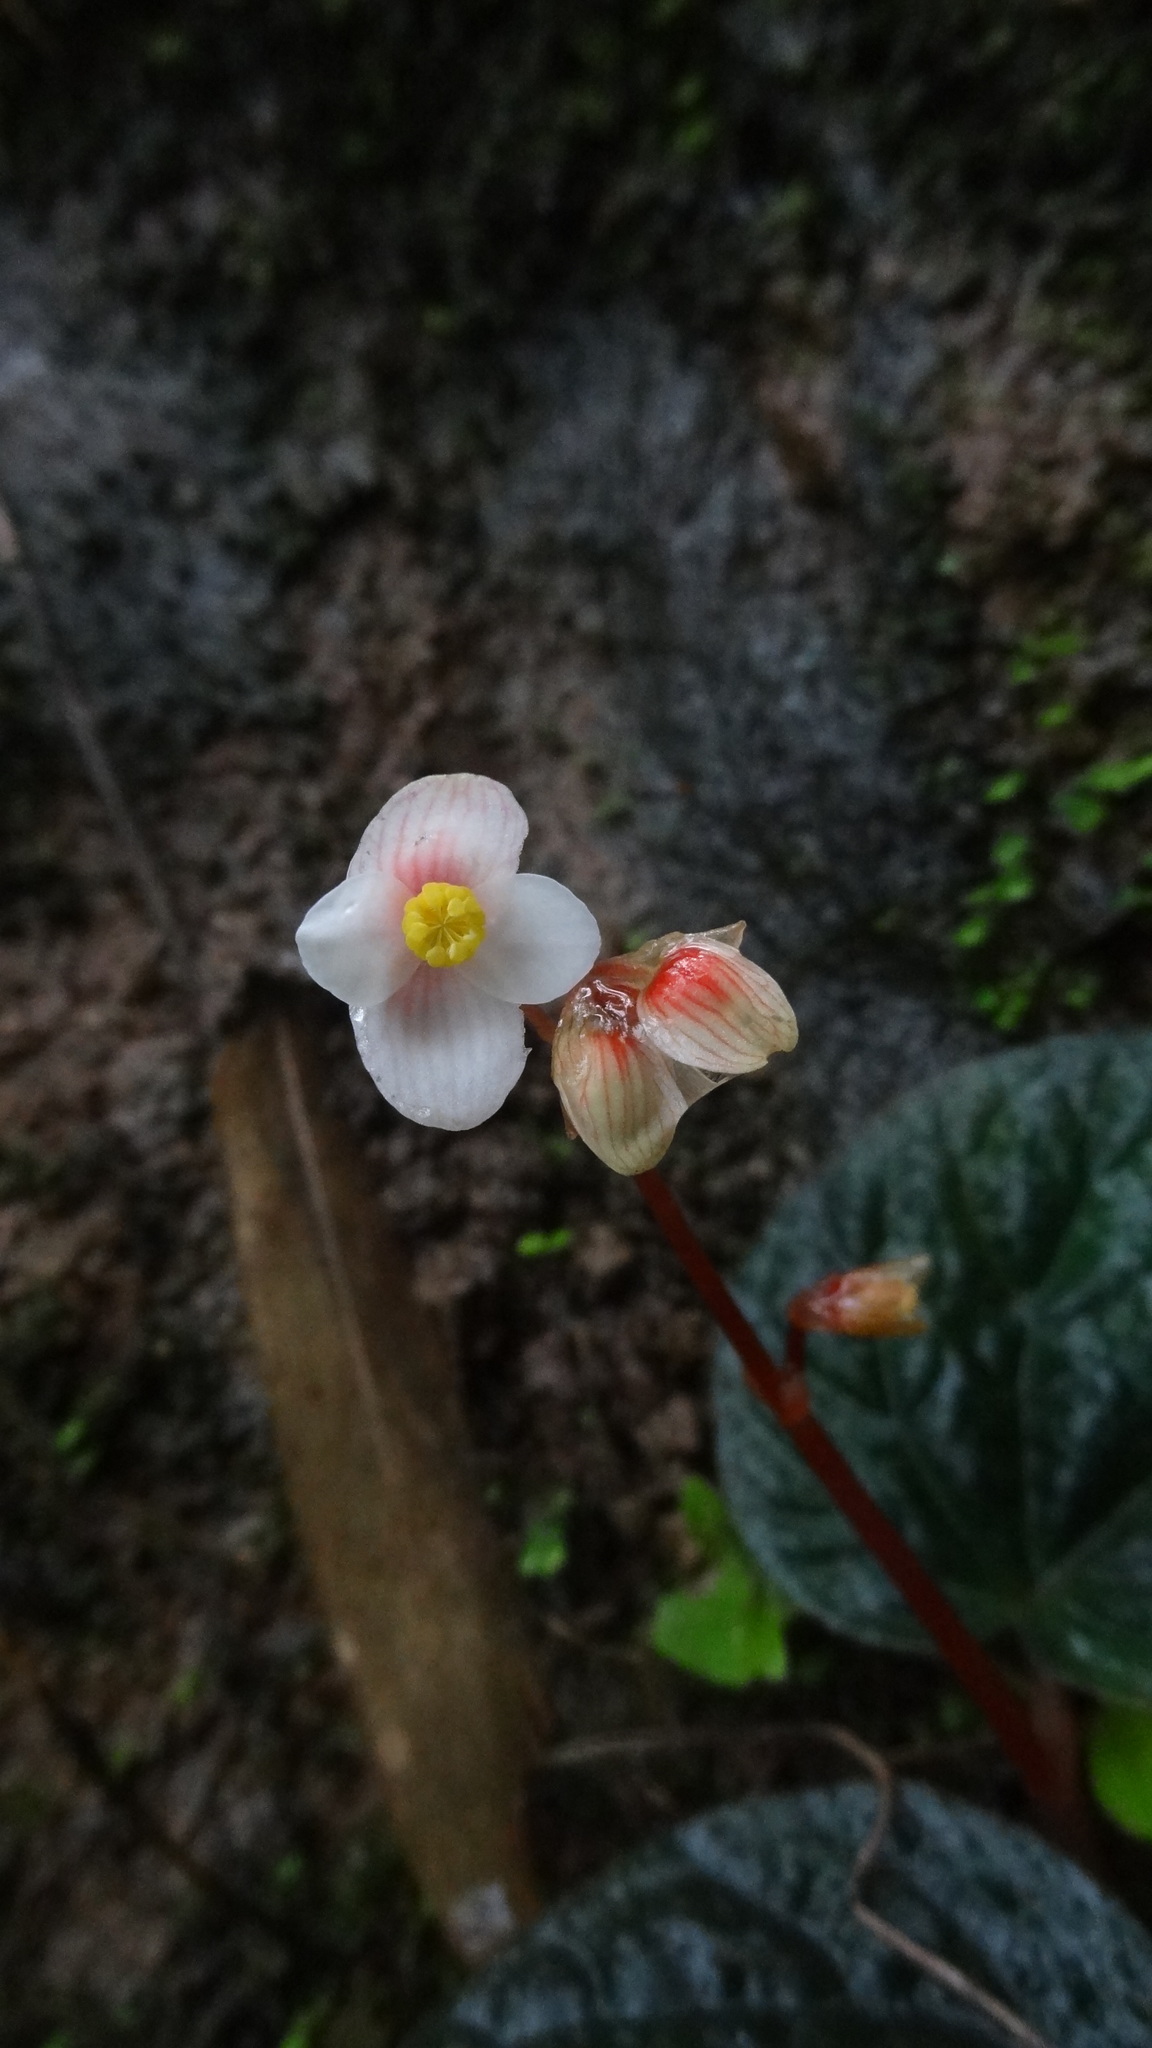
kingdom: Plantae
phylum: Tracheophyta
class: Magnoliopsida
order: Cucurbitales
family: Begoniaceae
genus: Begonia
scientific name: Begonia integrifolia
